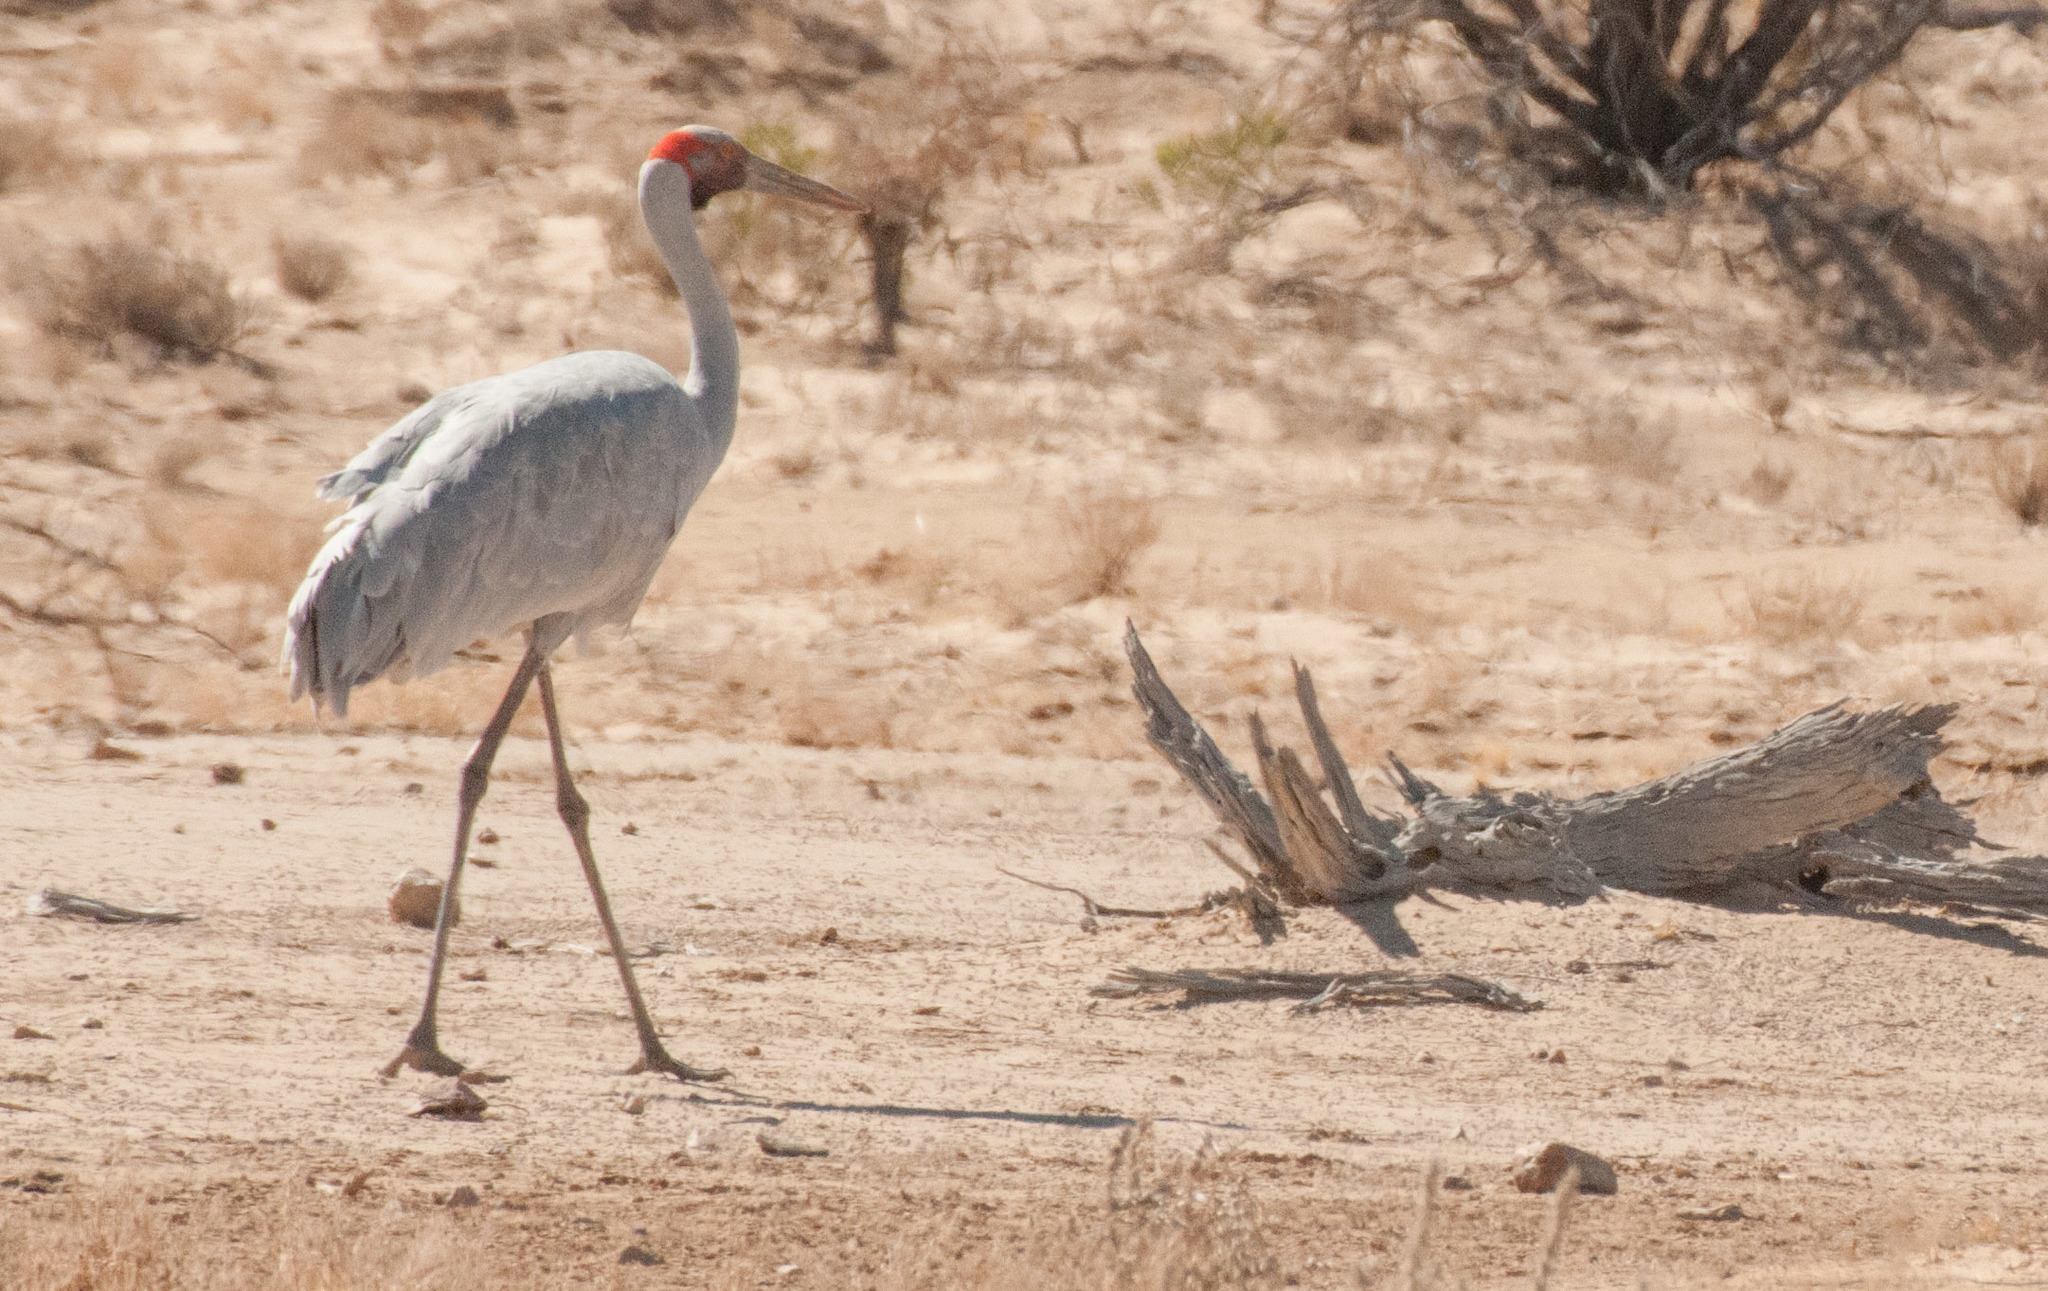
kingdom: Animalia
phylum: Chordata
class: Aves
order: Gruiformes
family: Gruidae
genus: Grus
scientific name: Grus rubicunda
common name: Brolga
